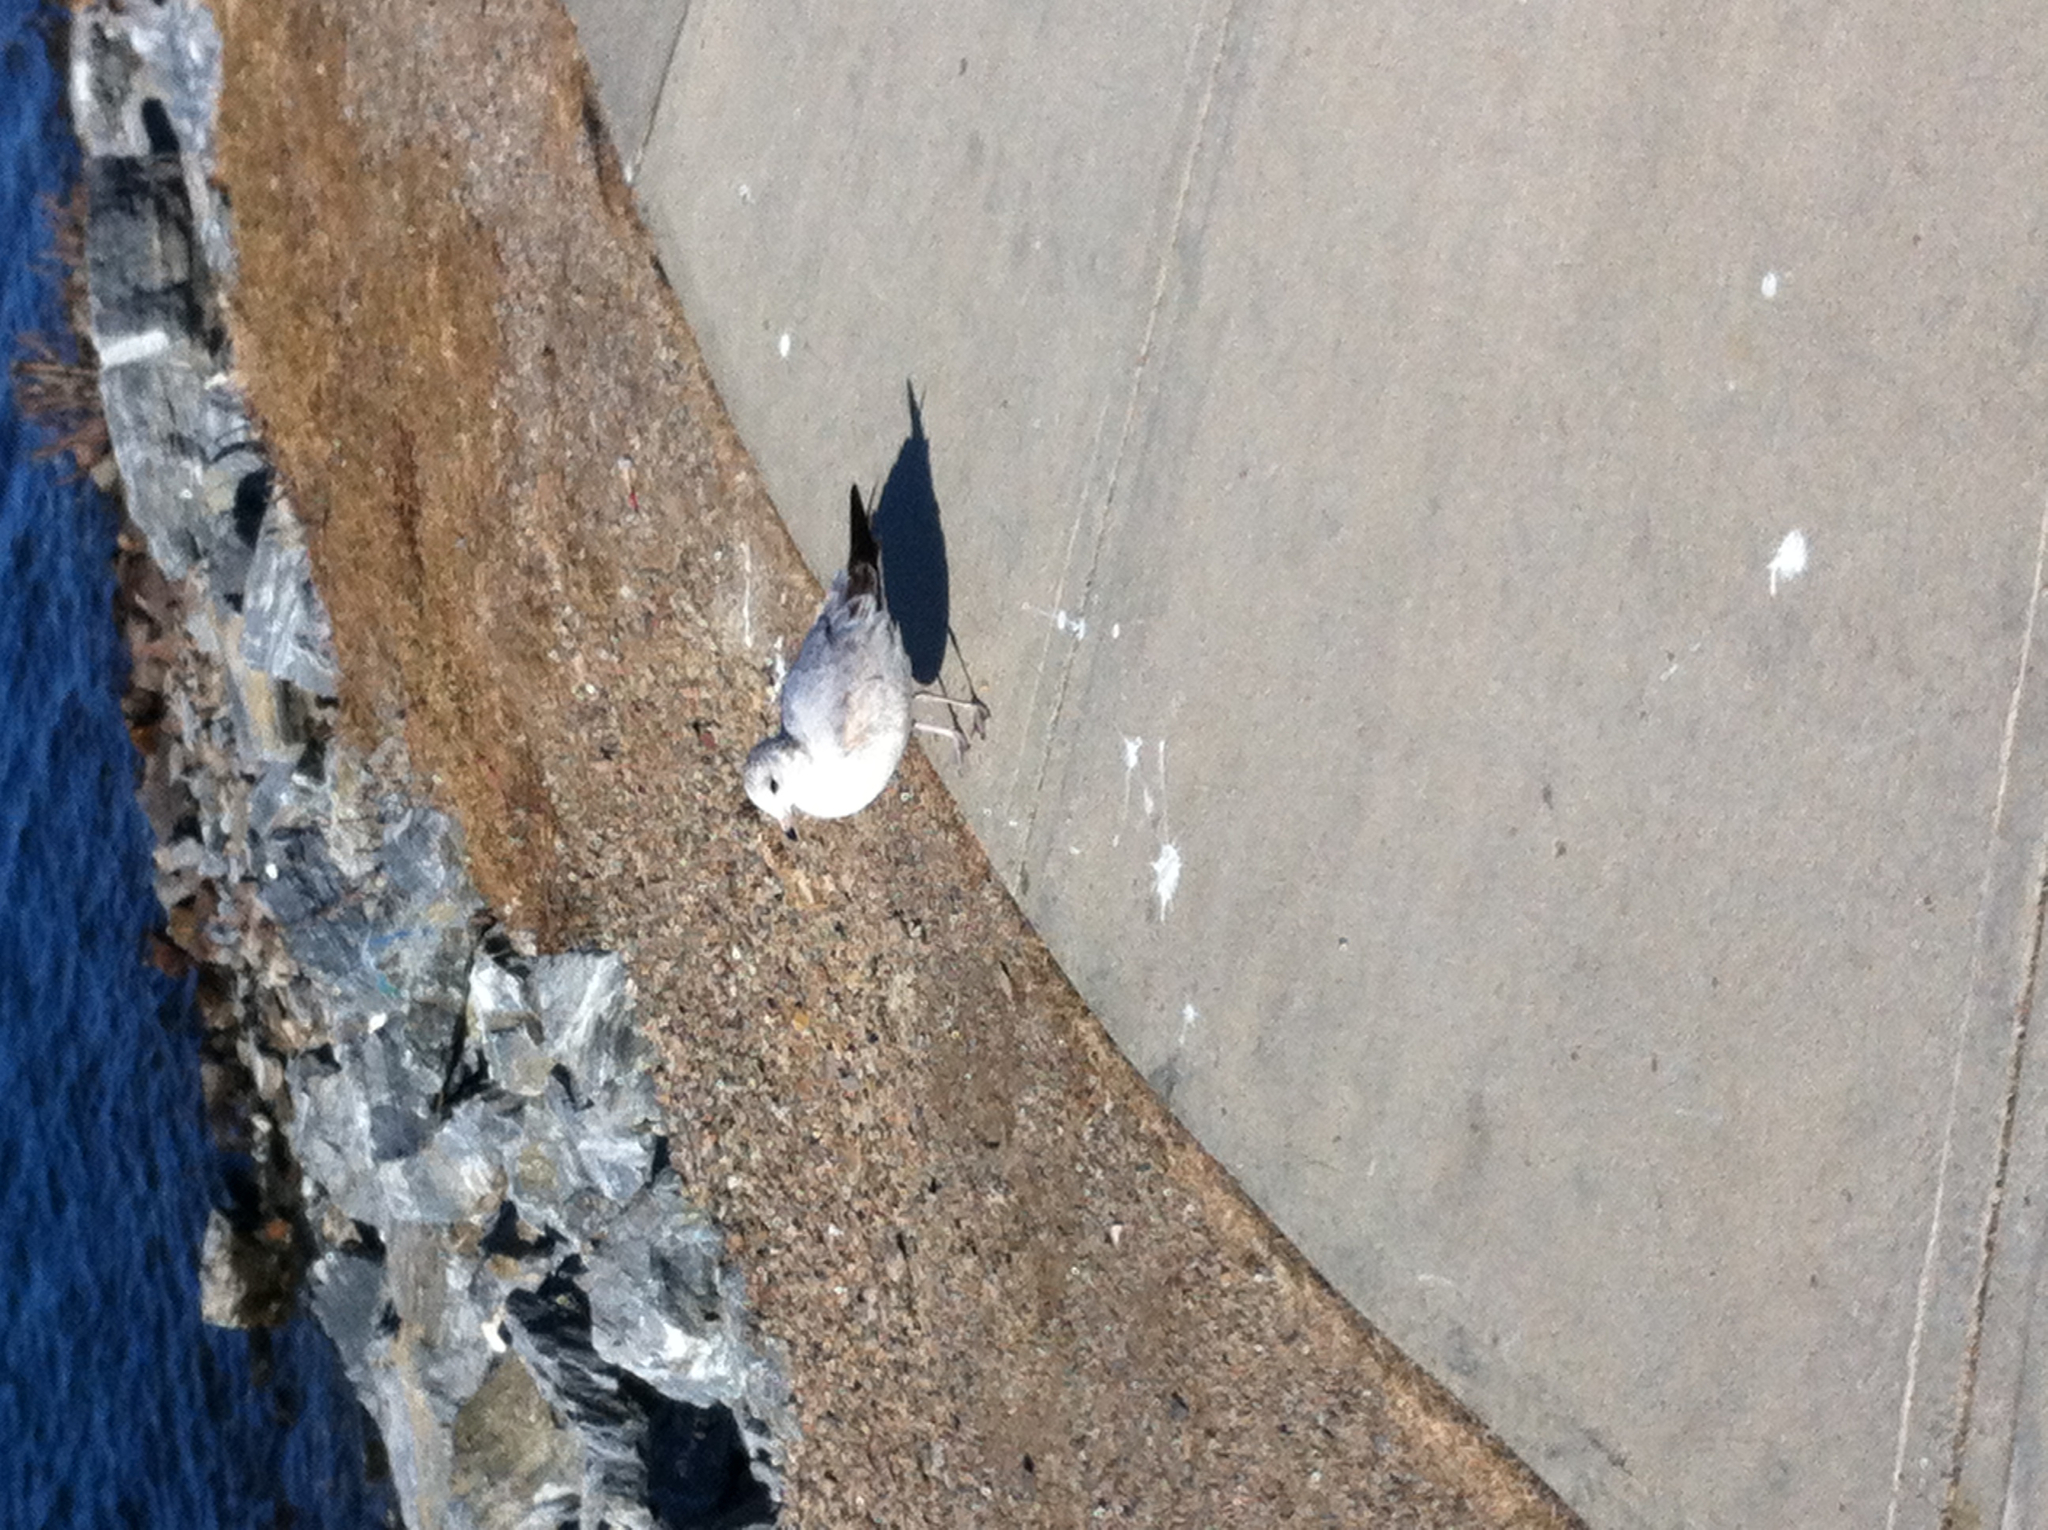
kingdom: Animalia
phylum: Chordata
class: Aves
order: Charadriiformes
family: Laridae
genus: Larus
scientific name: Larus delawarensis
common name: Ring-billed gull
